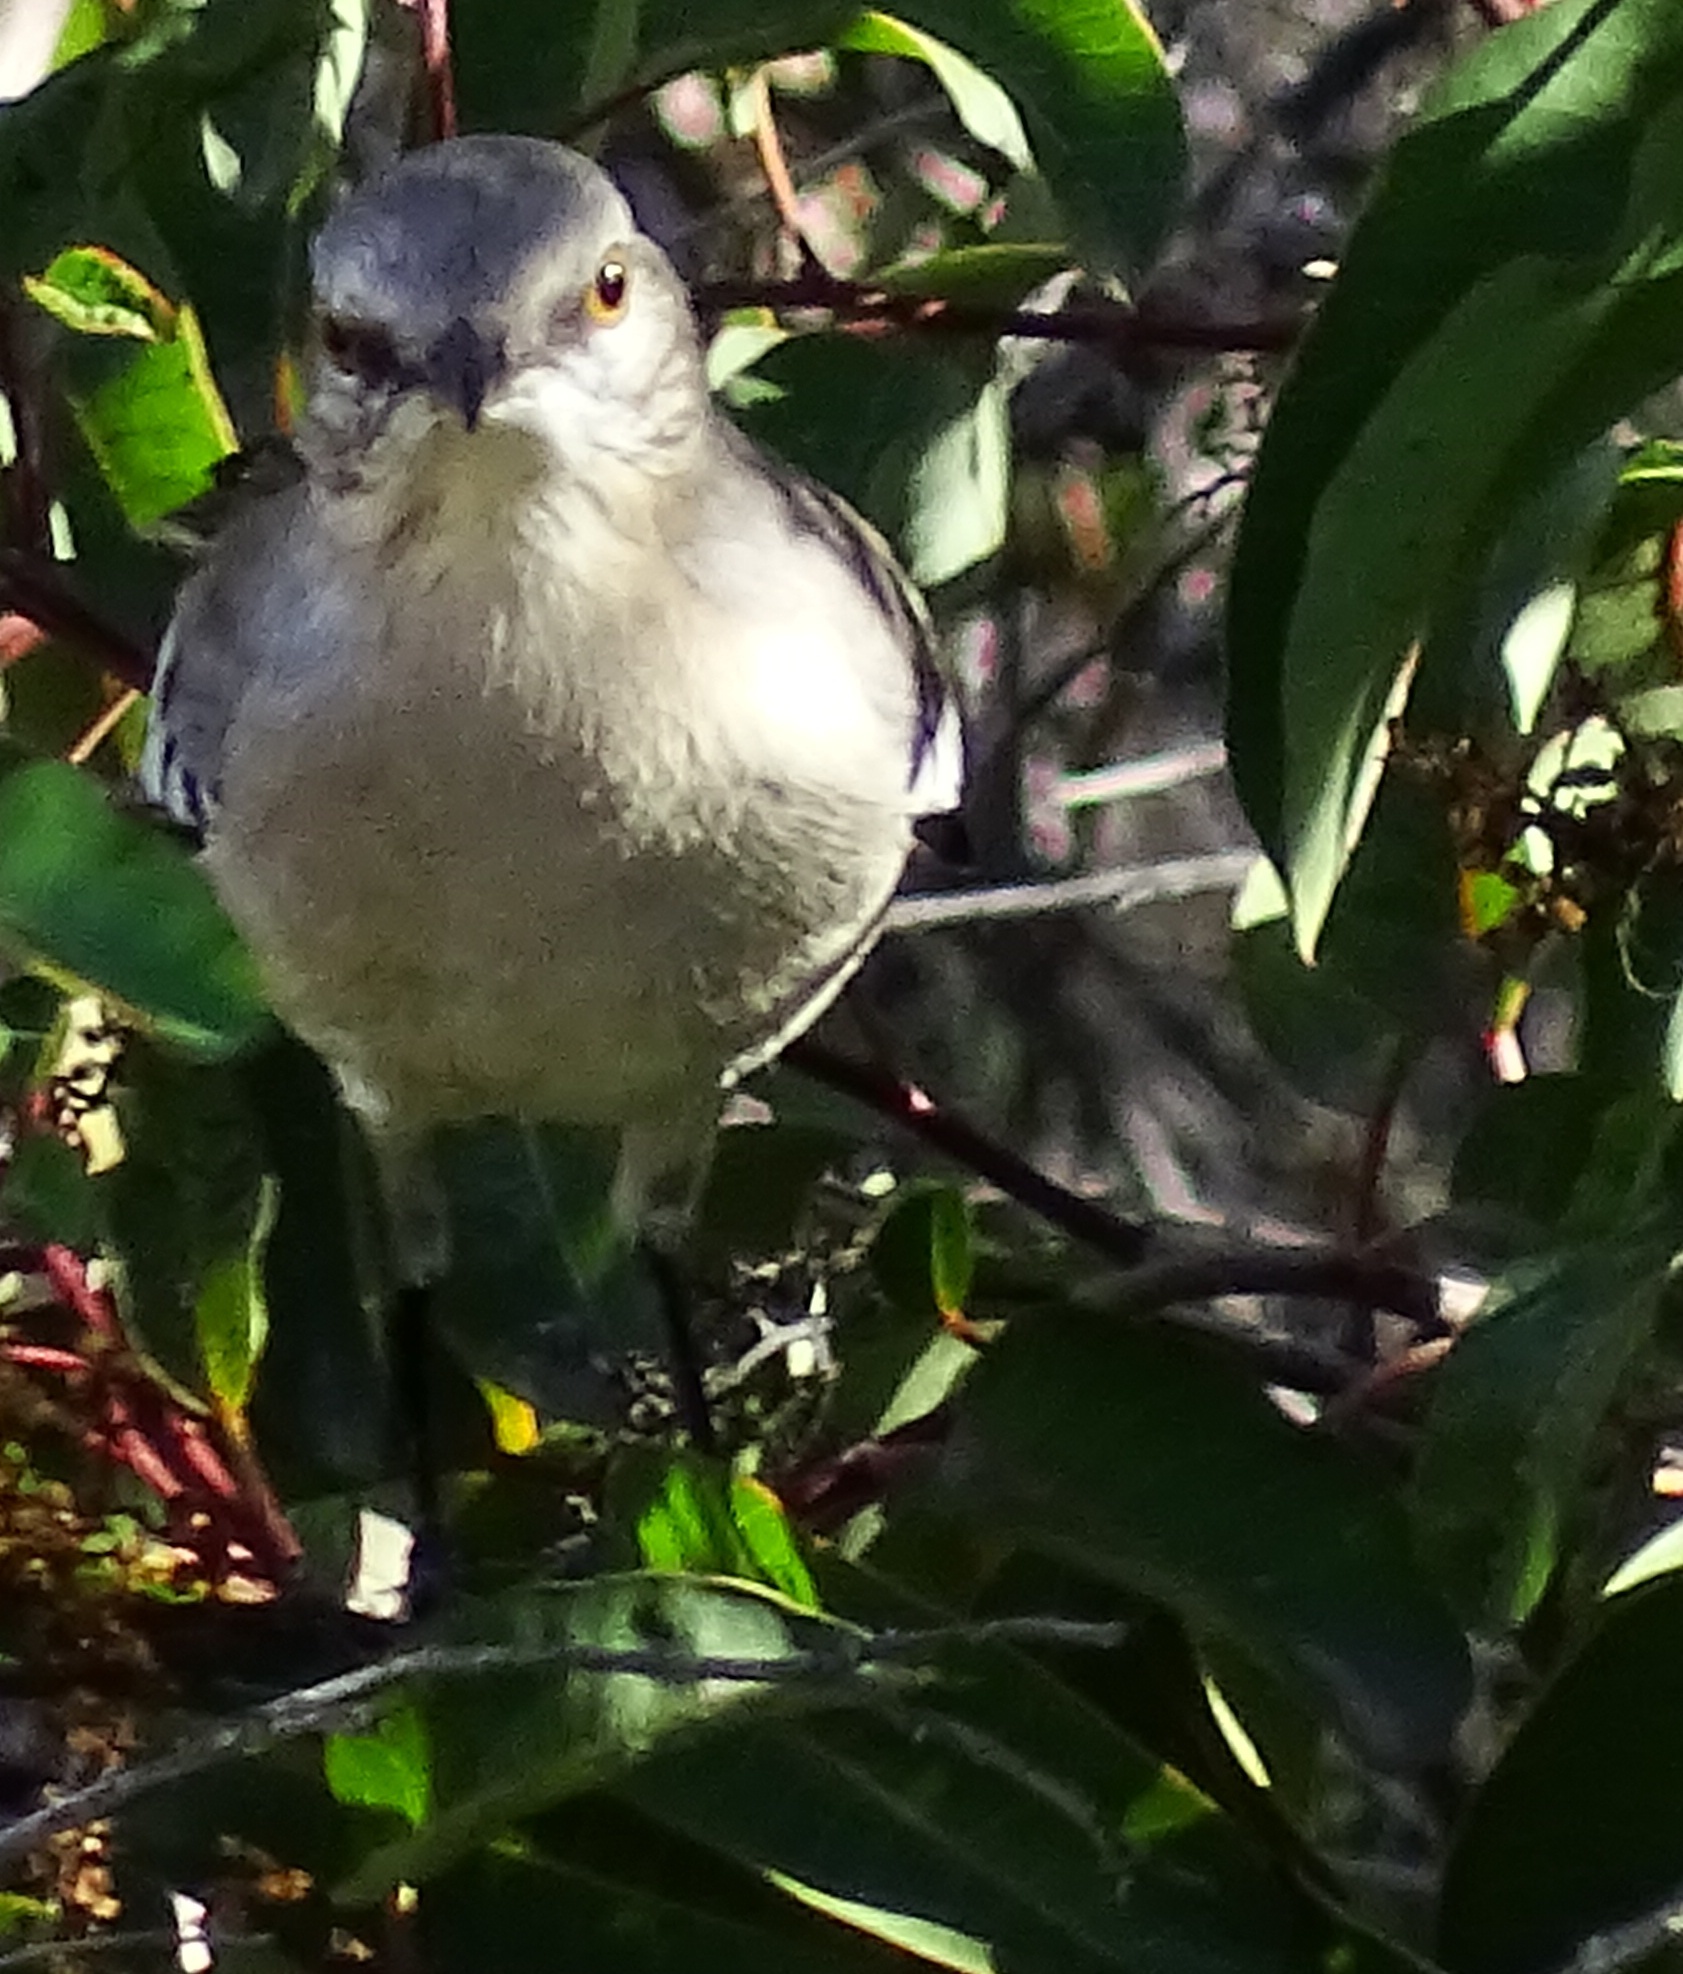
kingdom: Animalia
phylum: Chordata
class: Aves
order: Passeriformes
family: Mimidae
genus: Mimus
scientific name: Mimus polyglottos
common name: Northern mockingbird
